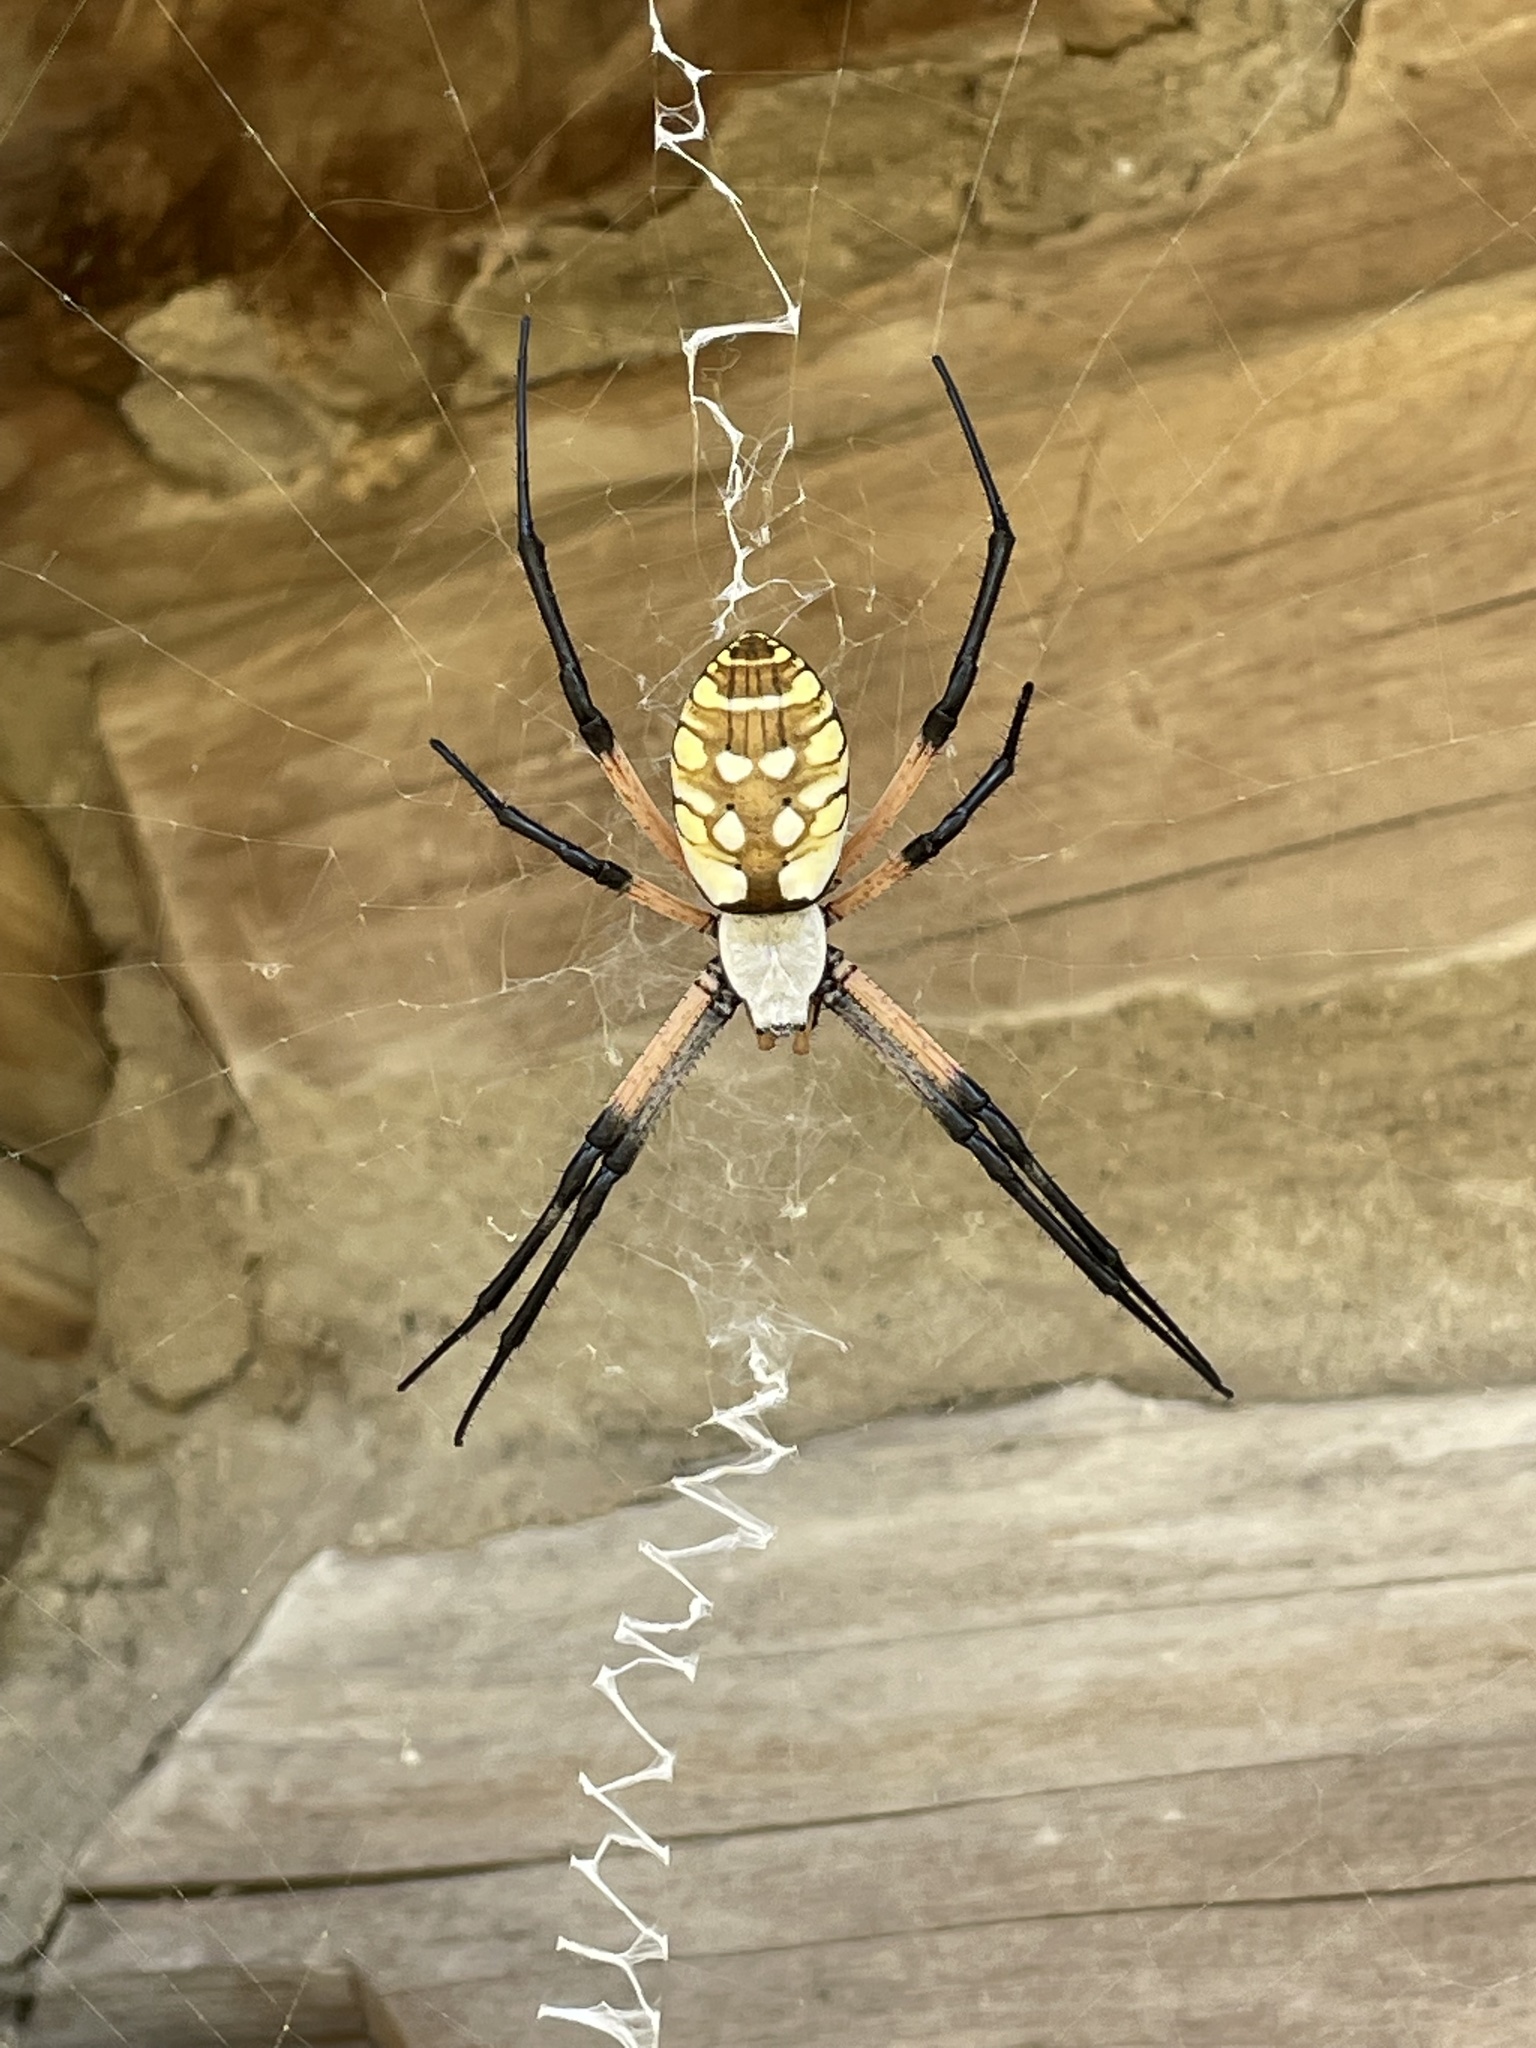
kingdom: Animalia
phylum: Arthropoda
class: Arachnida
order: Araneae
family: Araneidae
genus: Argiope
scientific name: Argiope aurantia
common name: Orb weavers
